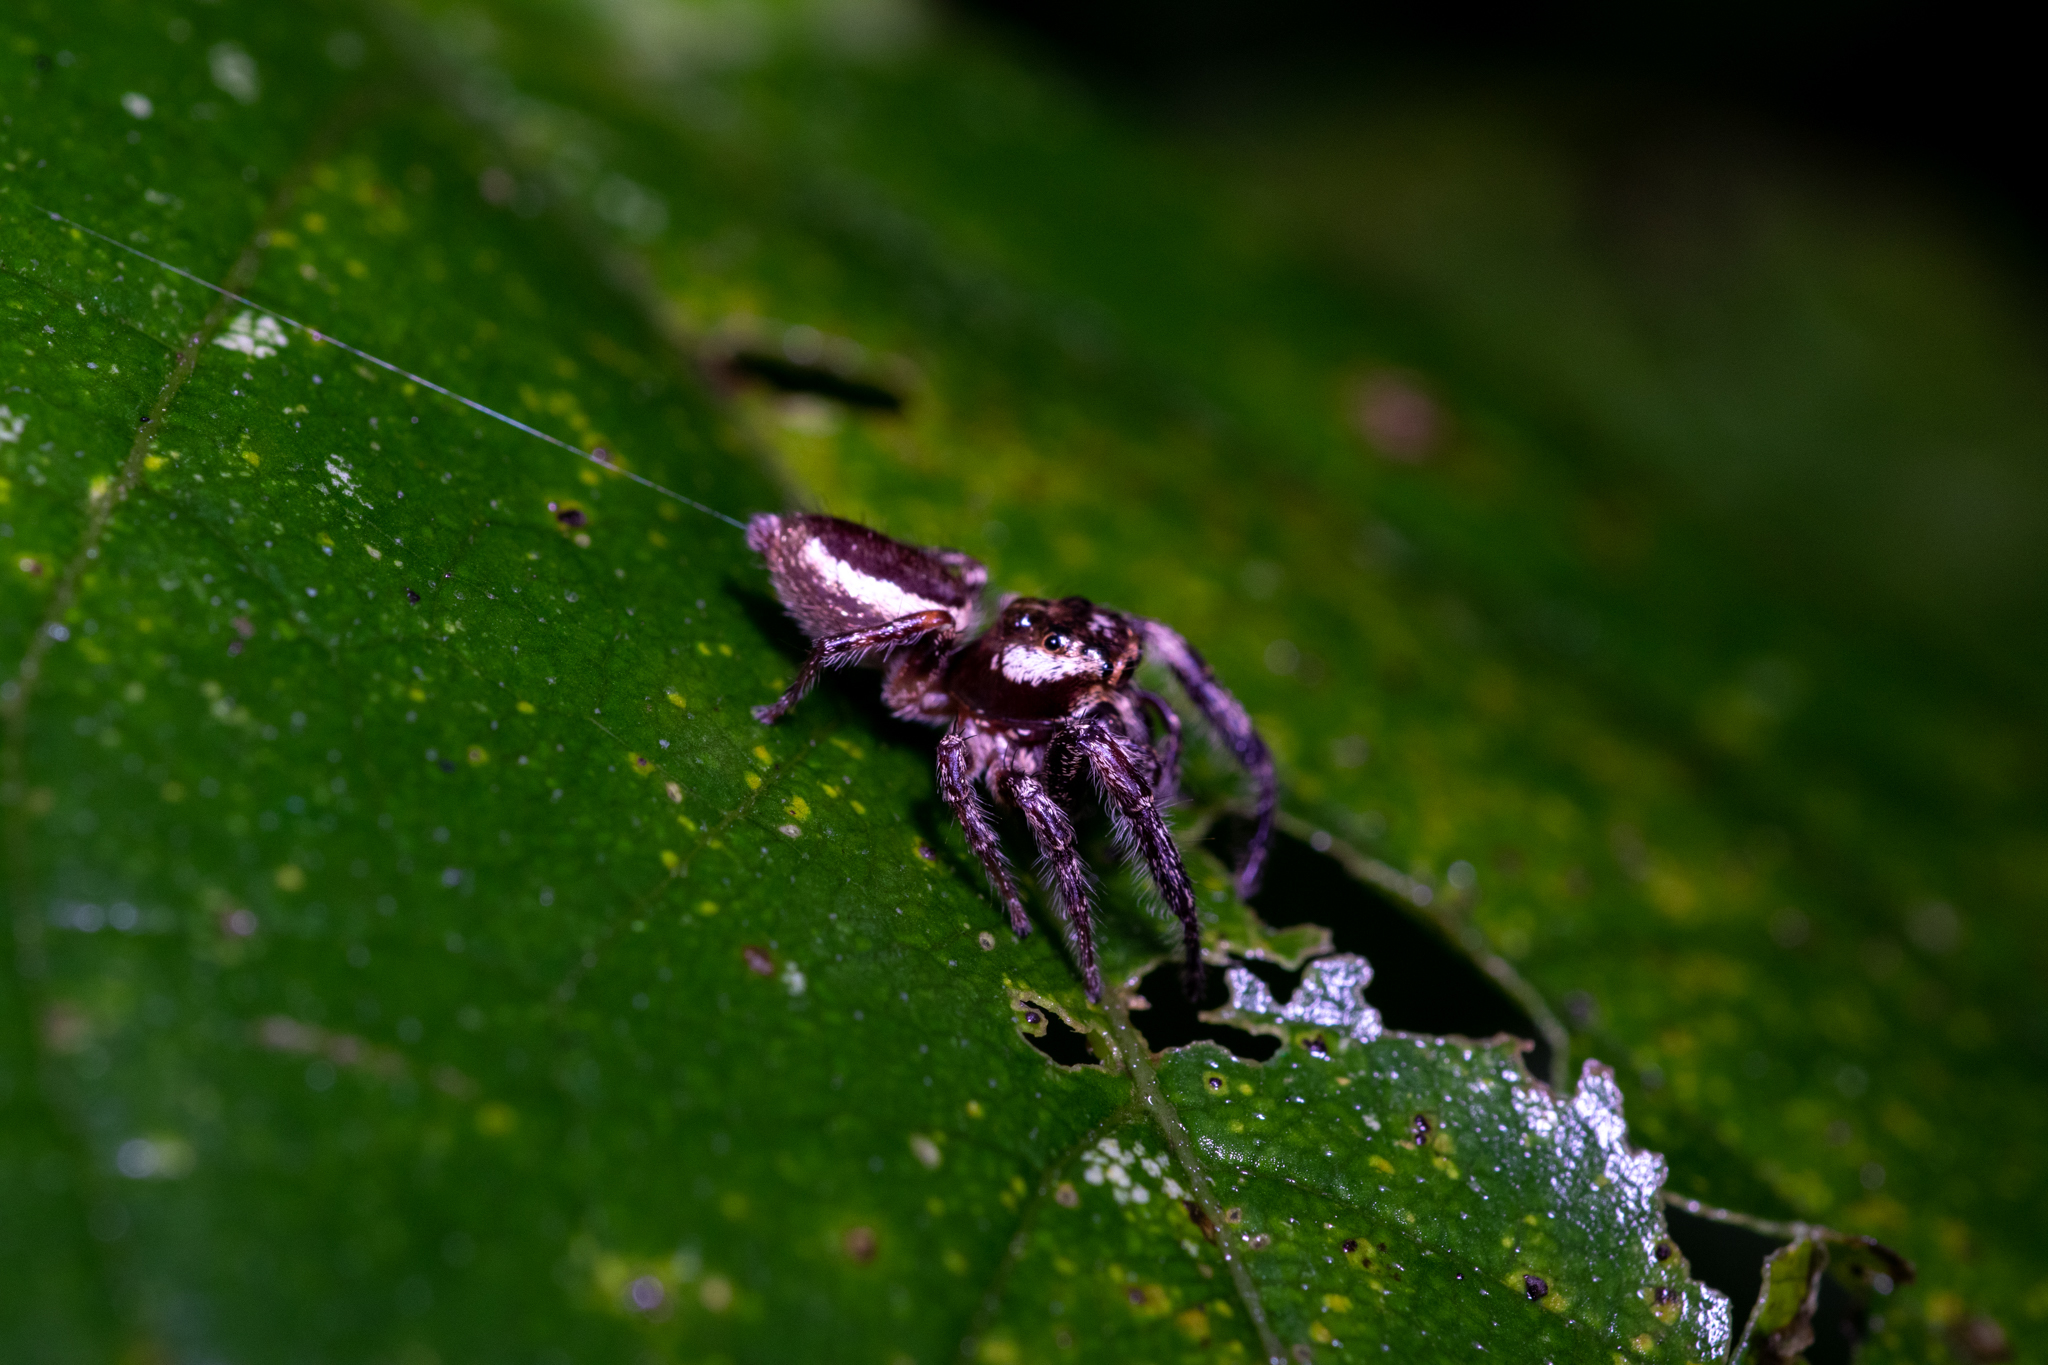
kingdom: Animalia
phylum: Arthropoda
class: Arachnida
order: Araneae
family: Salticidae
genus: Eris
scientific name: Eris militaris
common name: Bronze jumper
